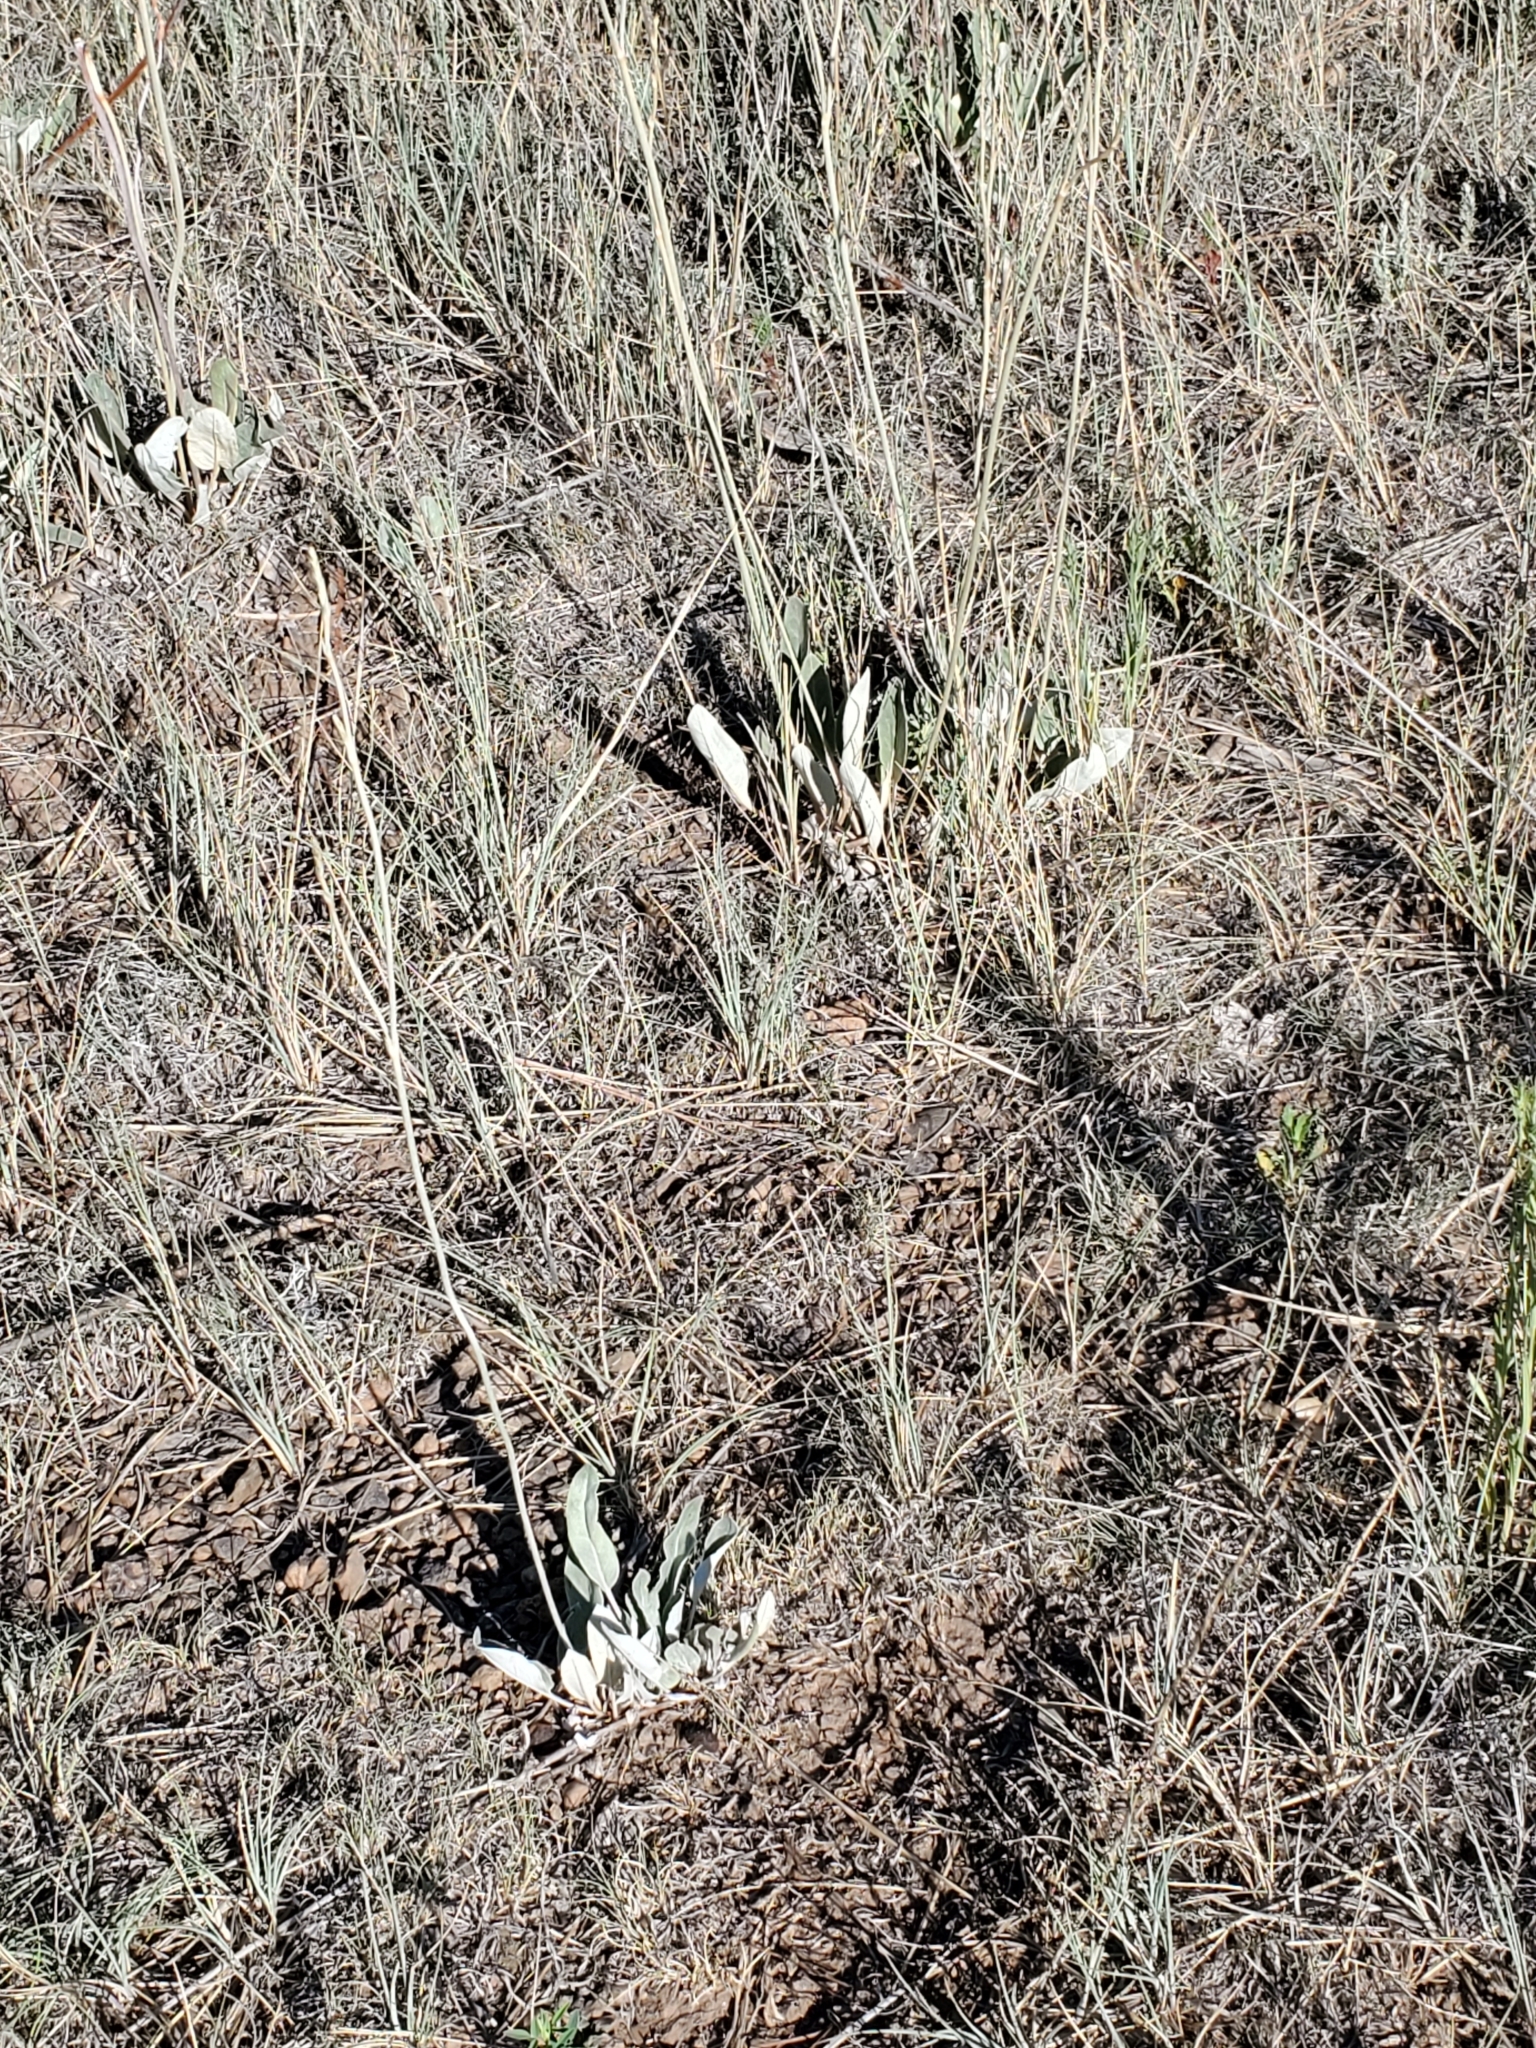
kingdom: Plantae
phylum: Tracheophyta
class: Magnoliopsida
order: Caryophyllales
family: Polygonaceae
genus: Eriogonum
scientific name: Eriogonum racemosum
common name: Redroot wild buckwheat
